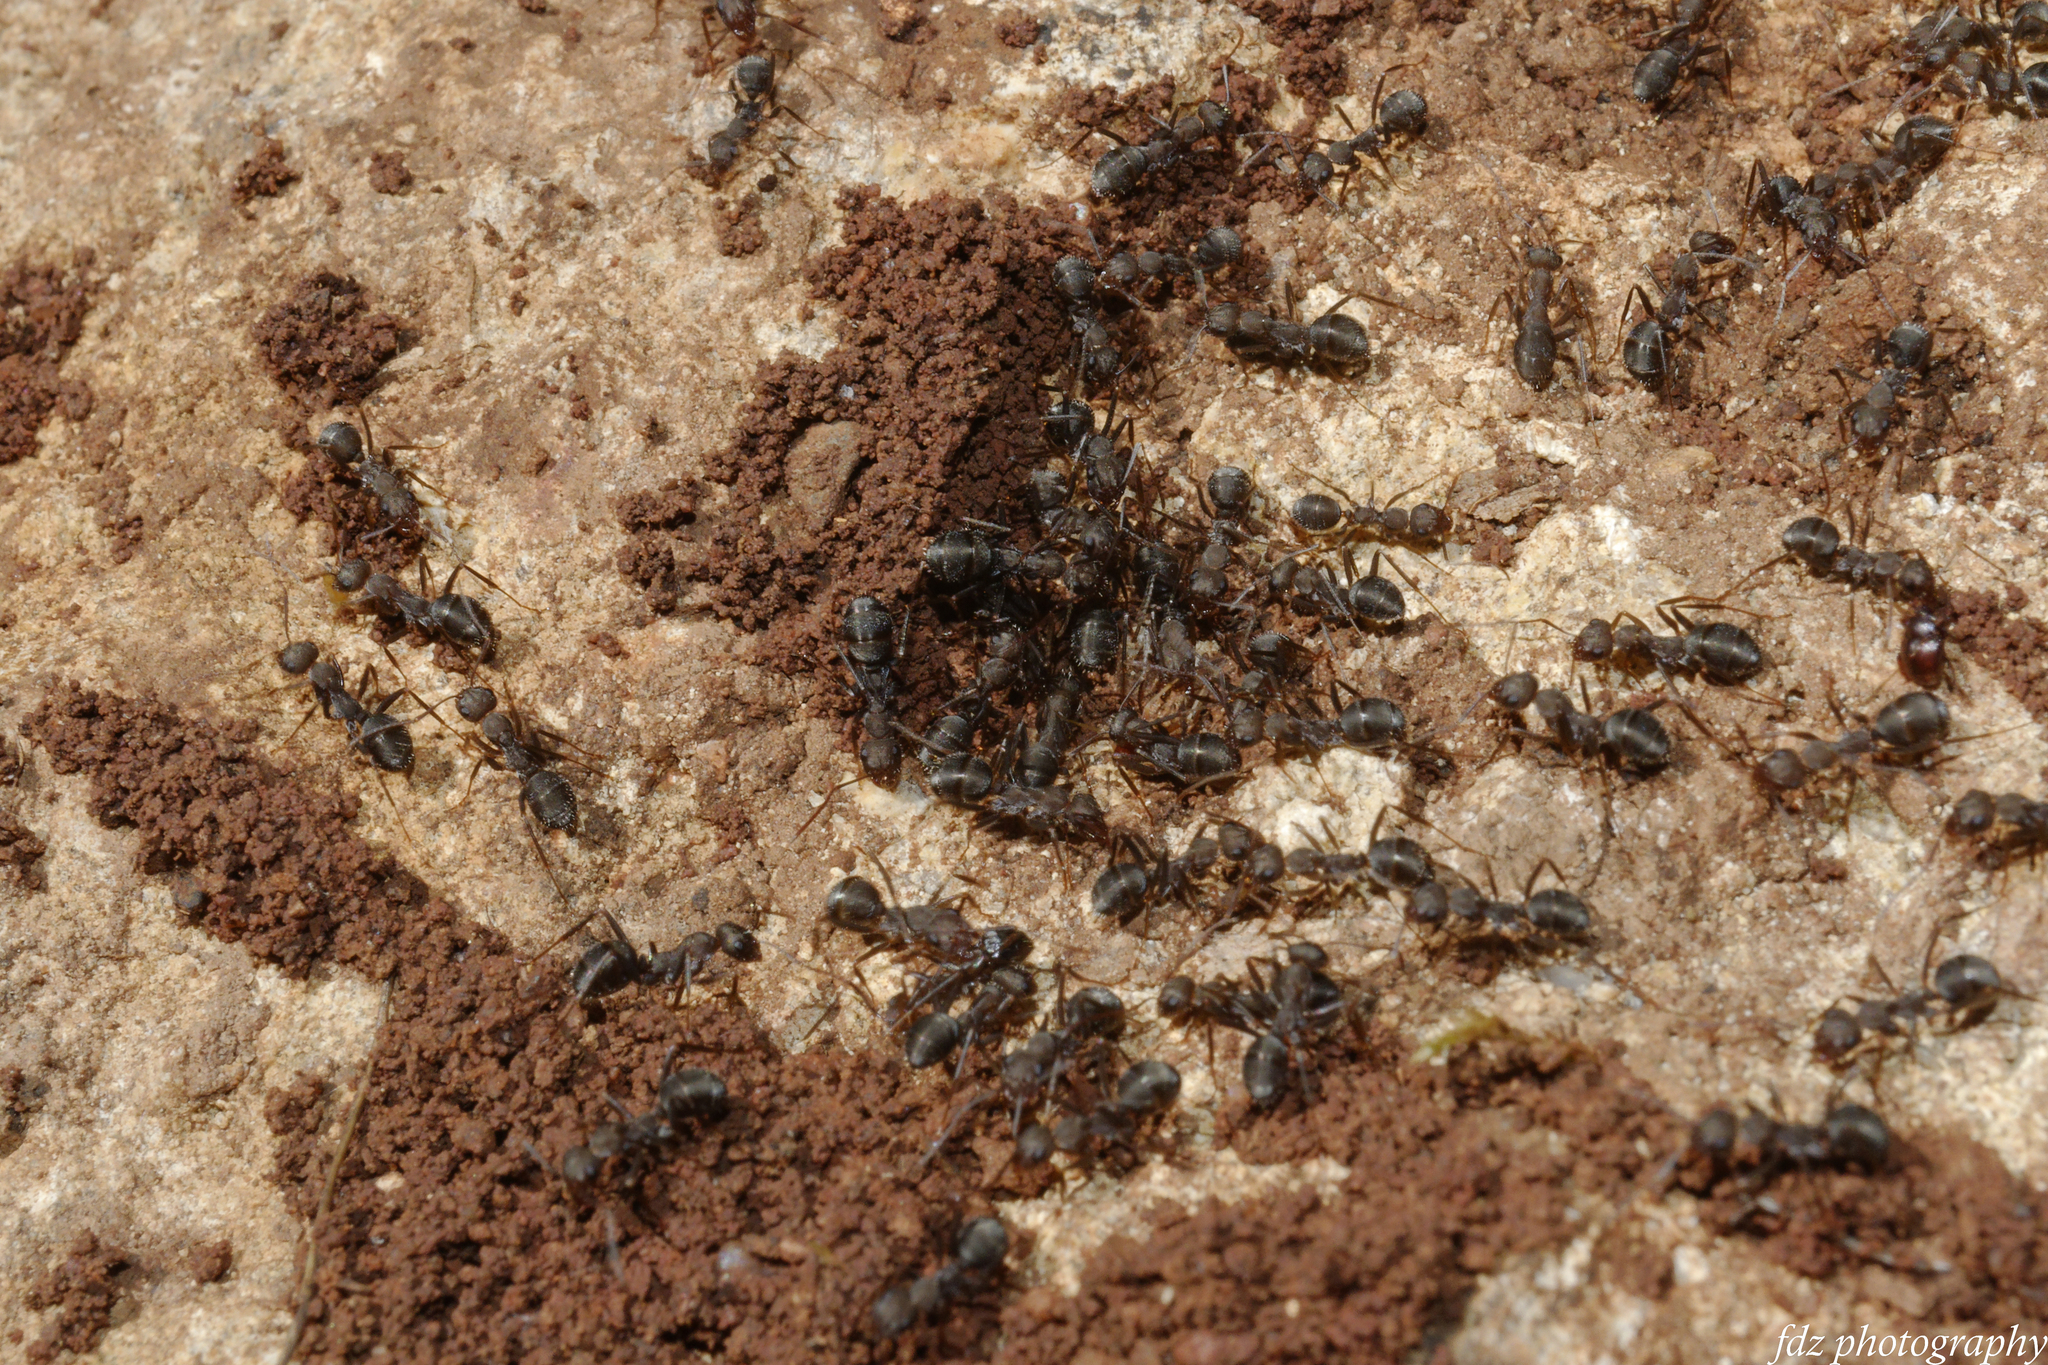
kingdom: Animalia
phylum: Arthropoda
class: Insecta
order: Hymenoptera
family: Formicidae
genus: Formica
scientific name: Formica subrufa
